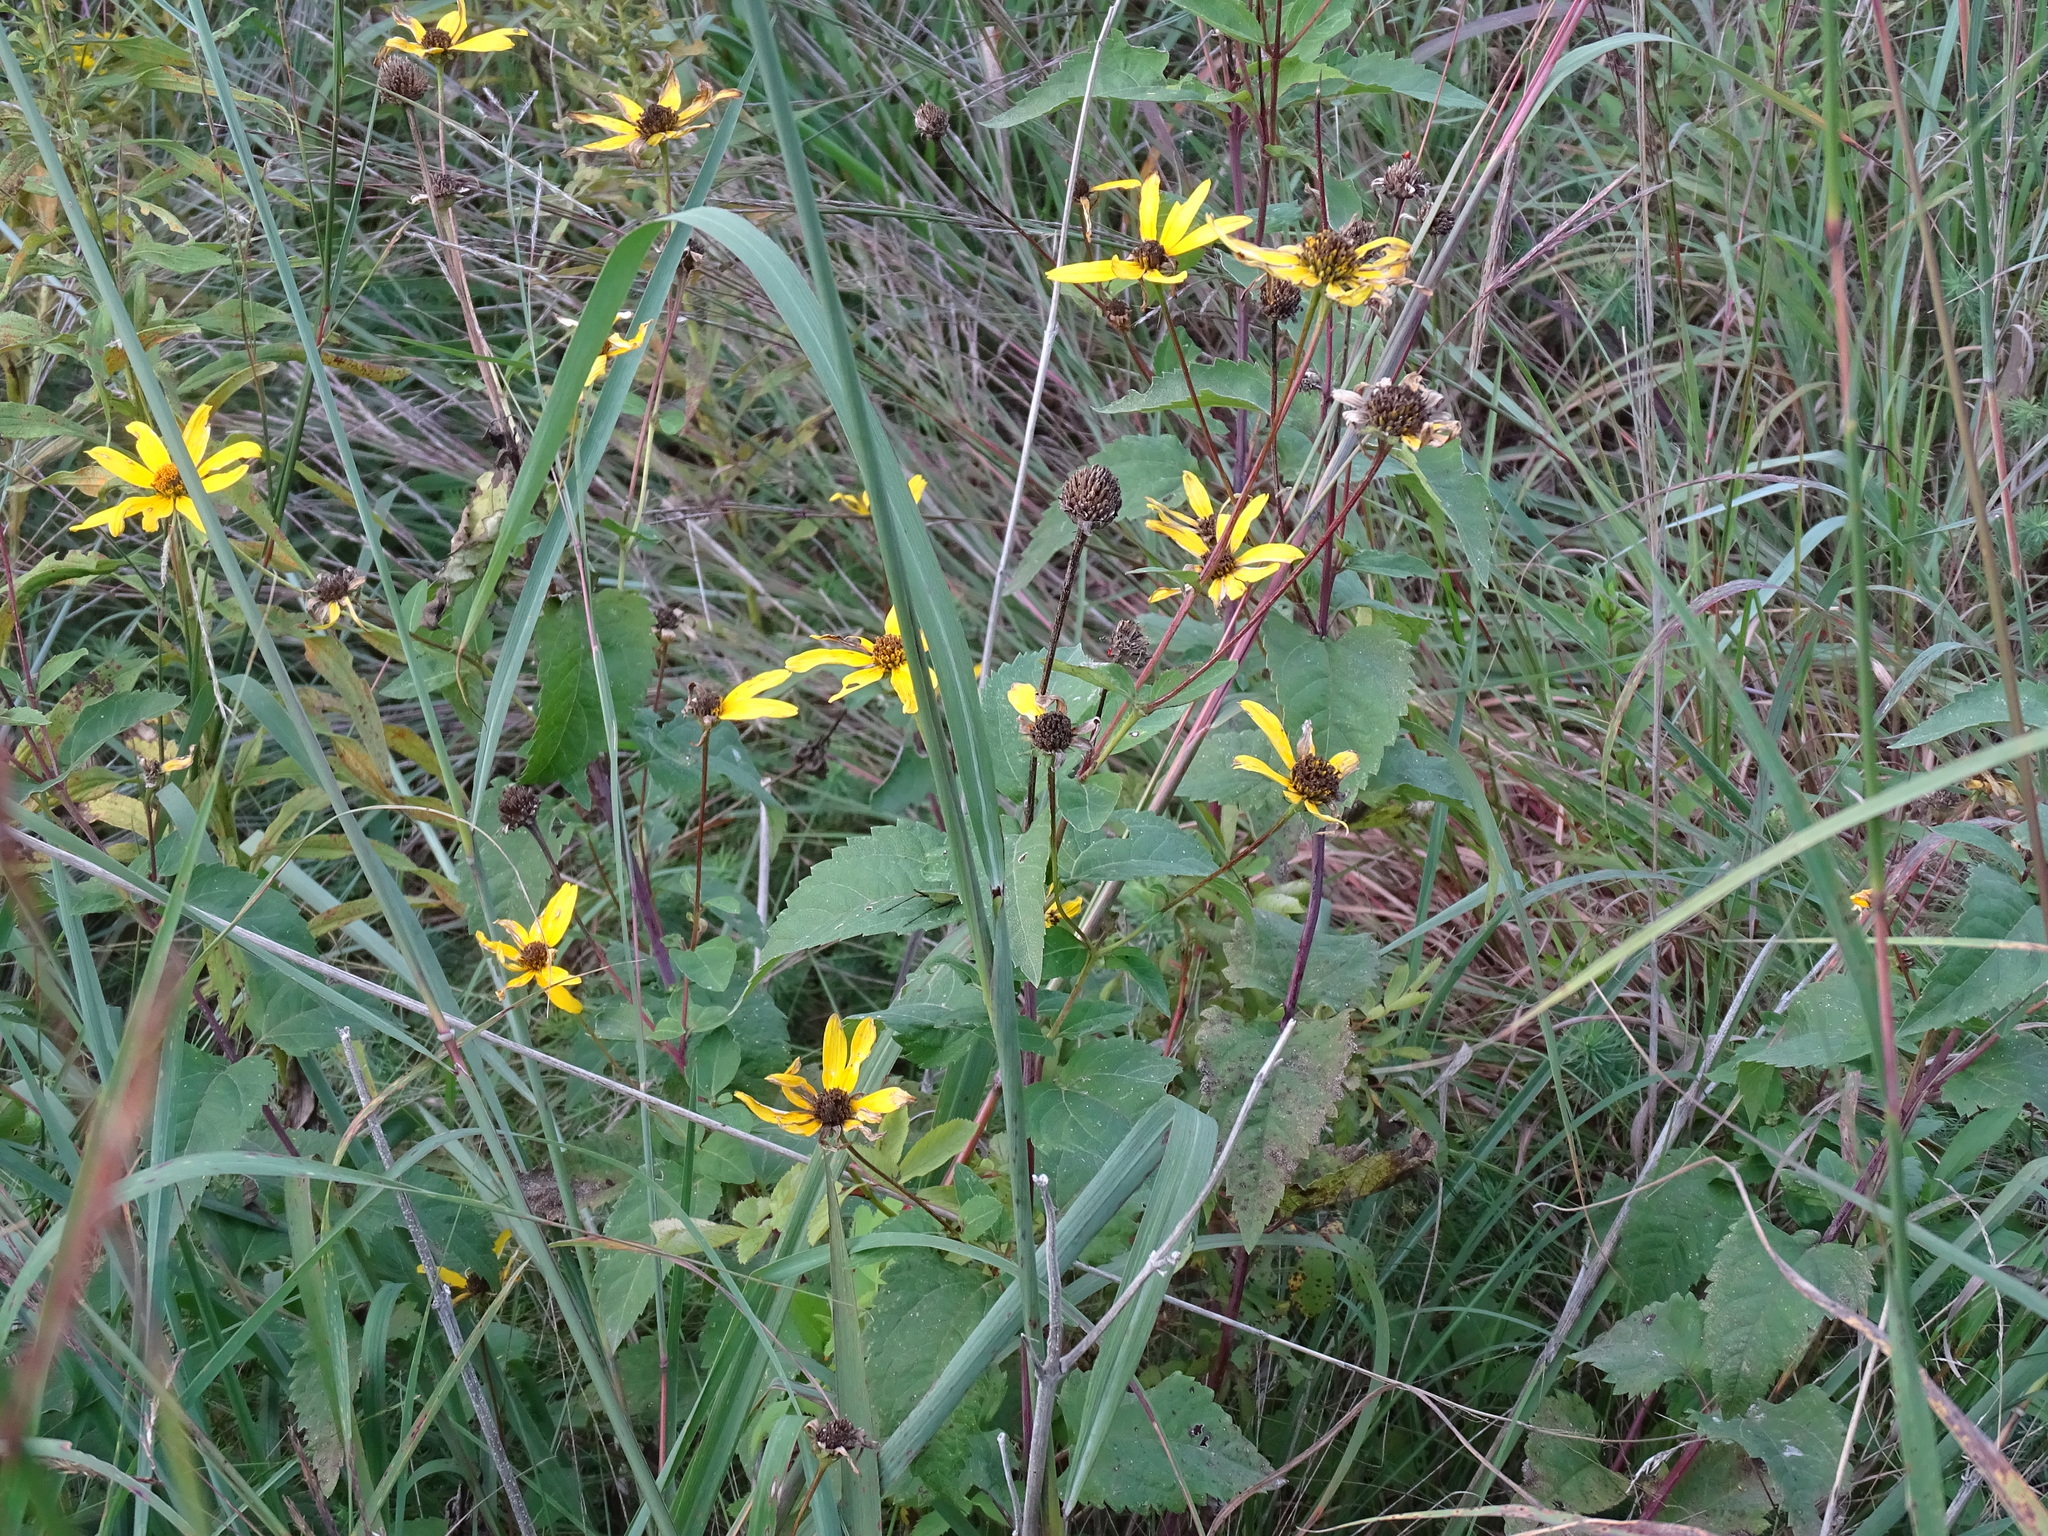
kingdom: Plantae
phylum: Tracheophyta
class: Magnoliopsida
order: Asterales
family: Asteraceae
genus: Heliopsis
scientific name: Heliopsis helianthoides
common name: False sunflower
